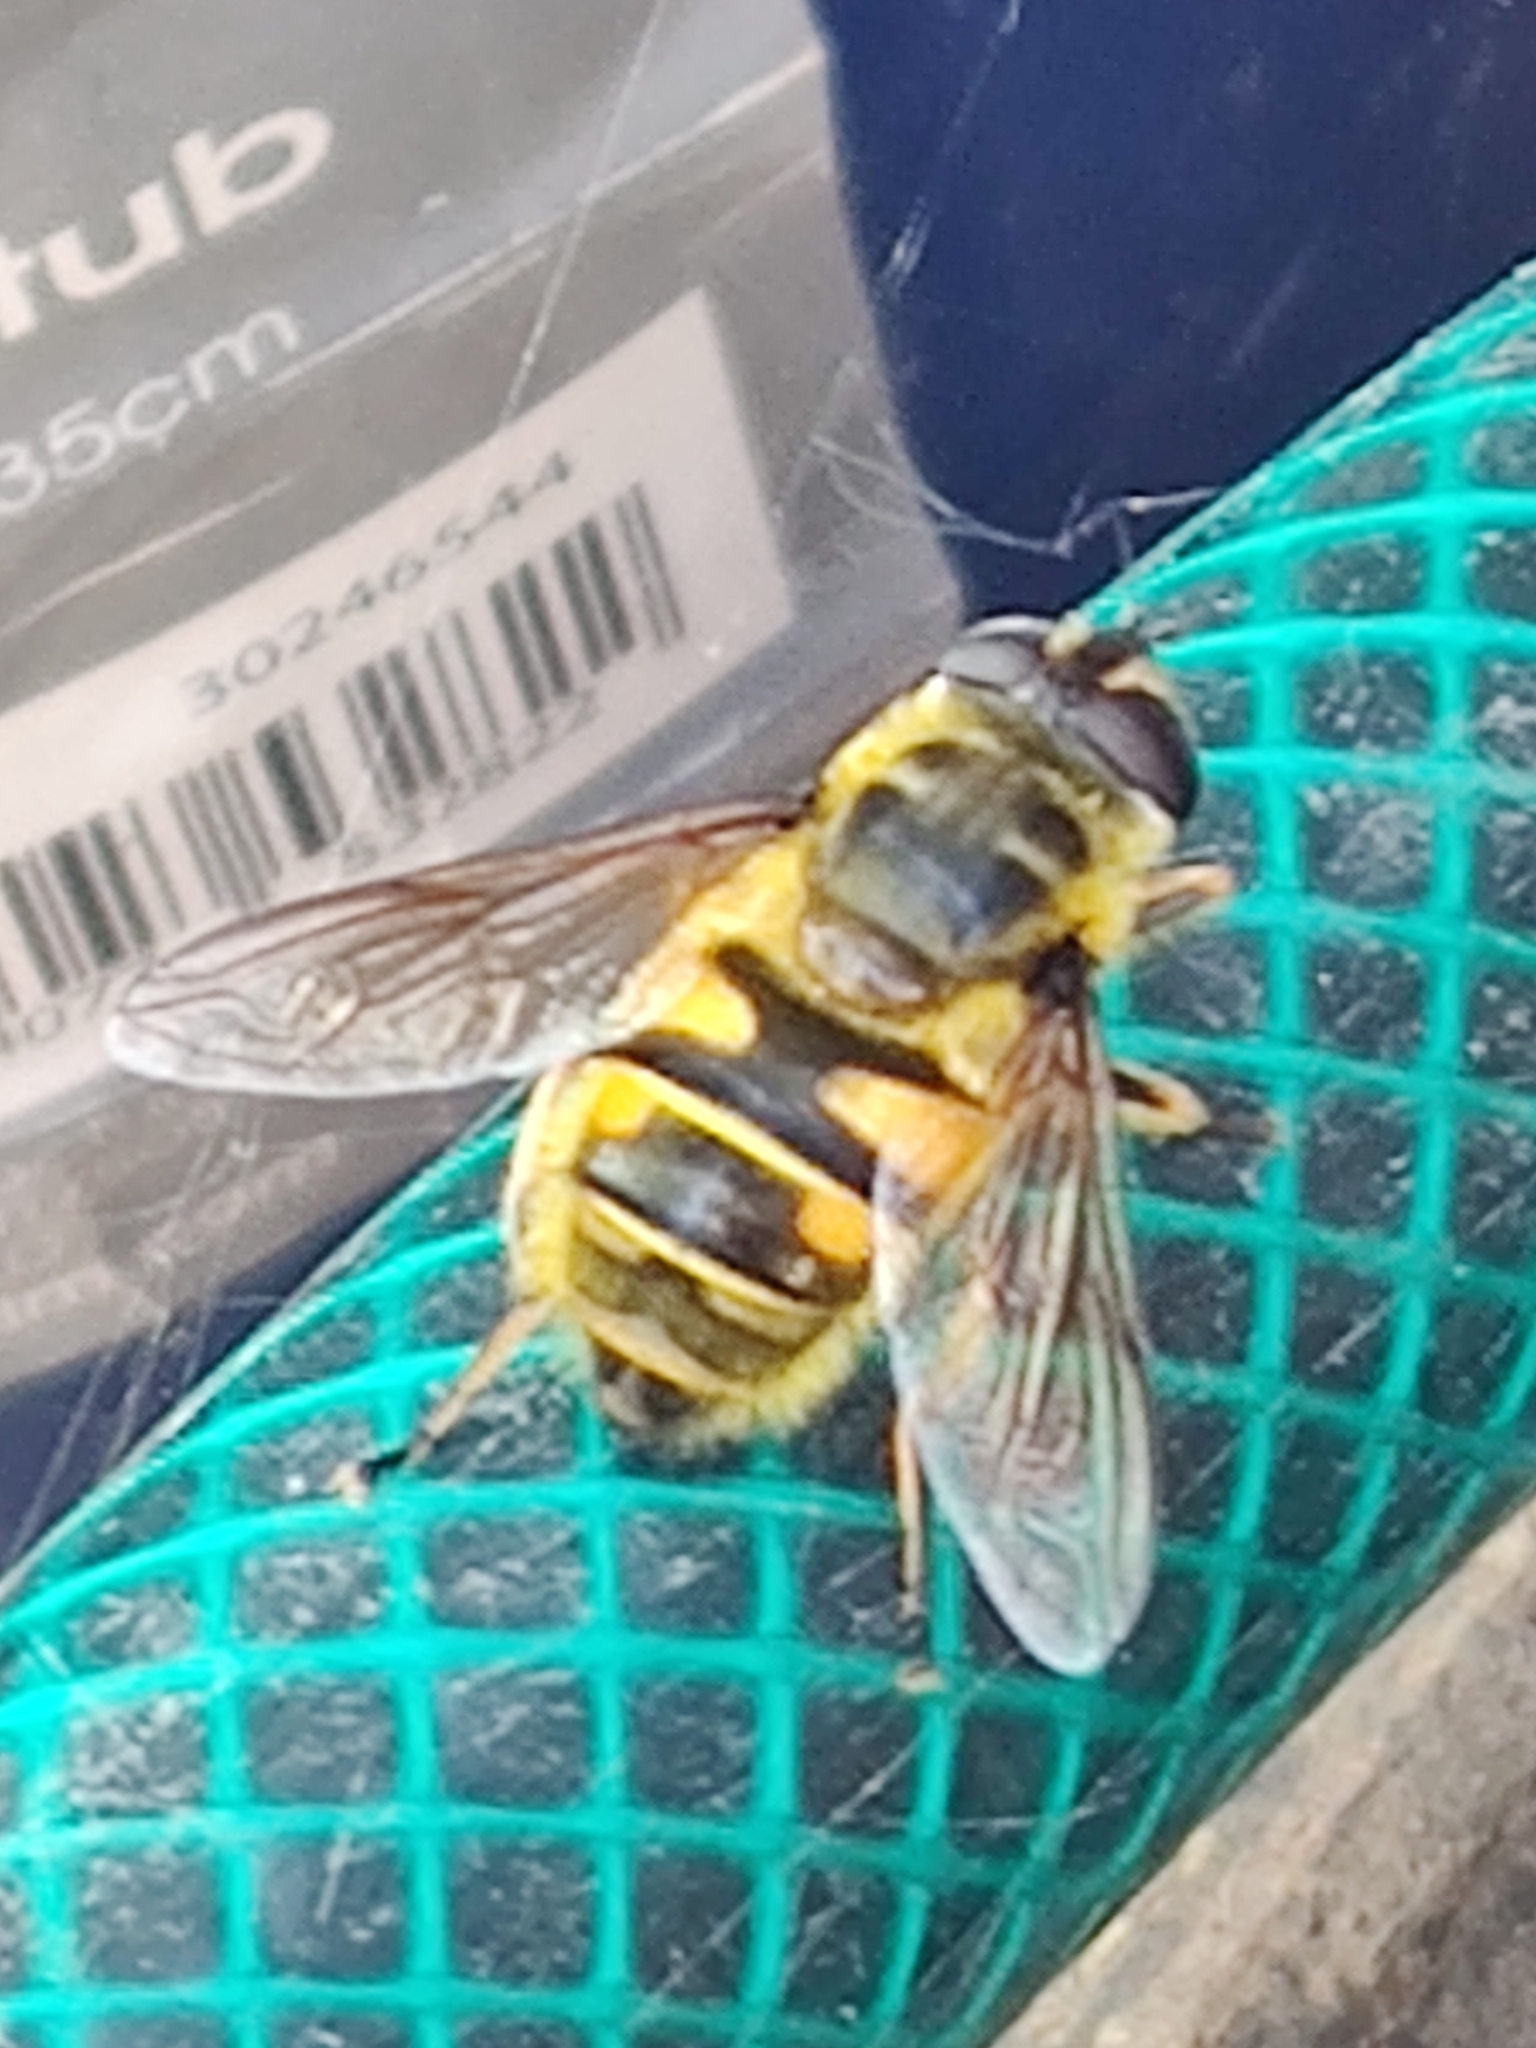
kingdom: Animalia
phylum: Arthropoda
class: Insecta
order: Diptera
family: Syrphidae
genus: Myathropa
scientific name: Myathropa florea
